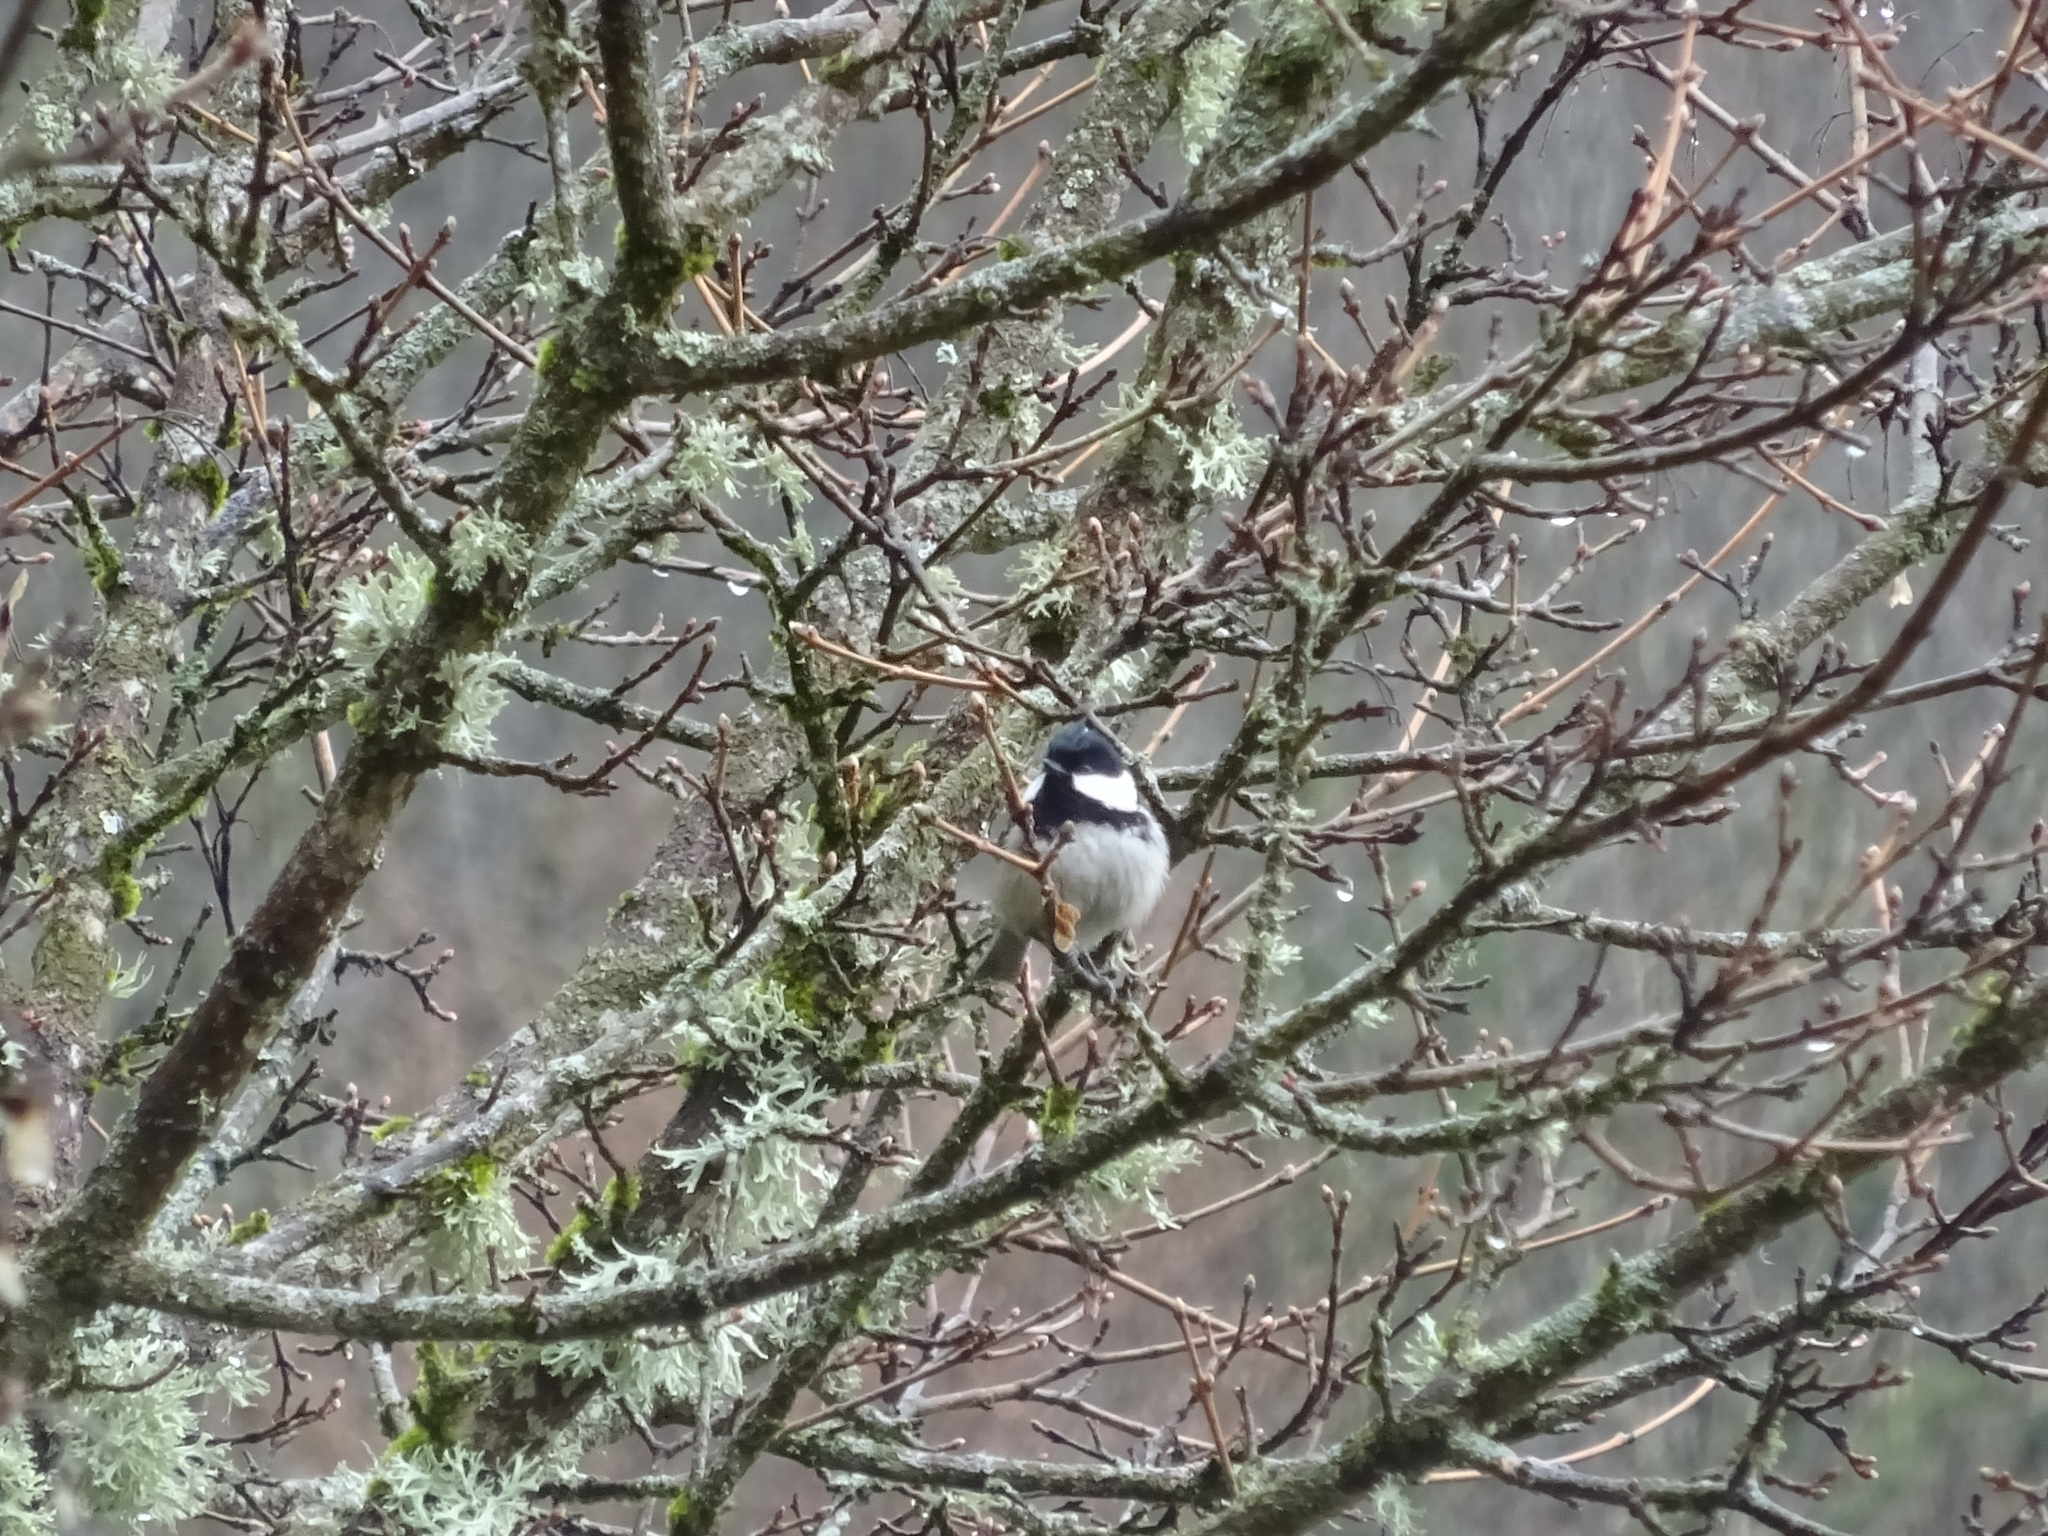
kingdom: Animalia
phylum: Chordata
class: Aves
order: Passeriformes
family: Paridae
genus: Periparus
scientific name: Periparus ater
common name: Coal tit
